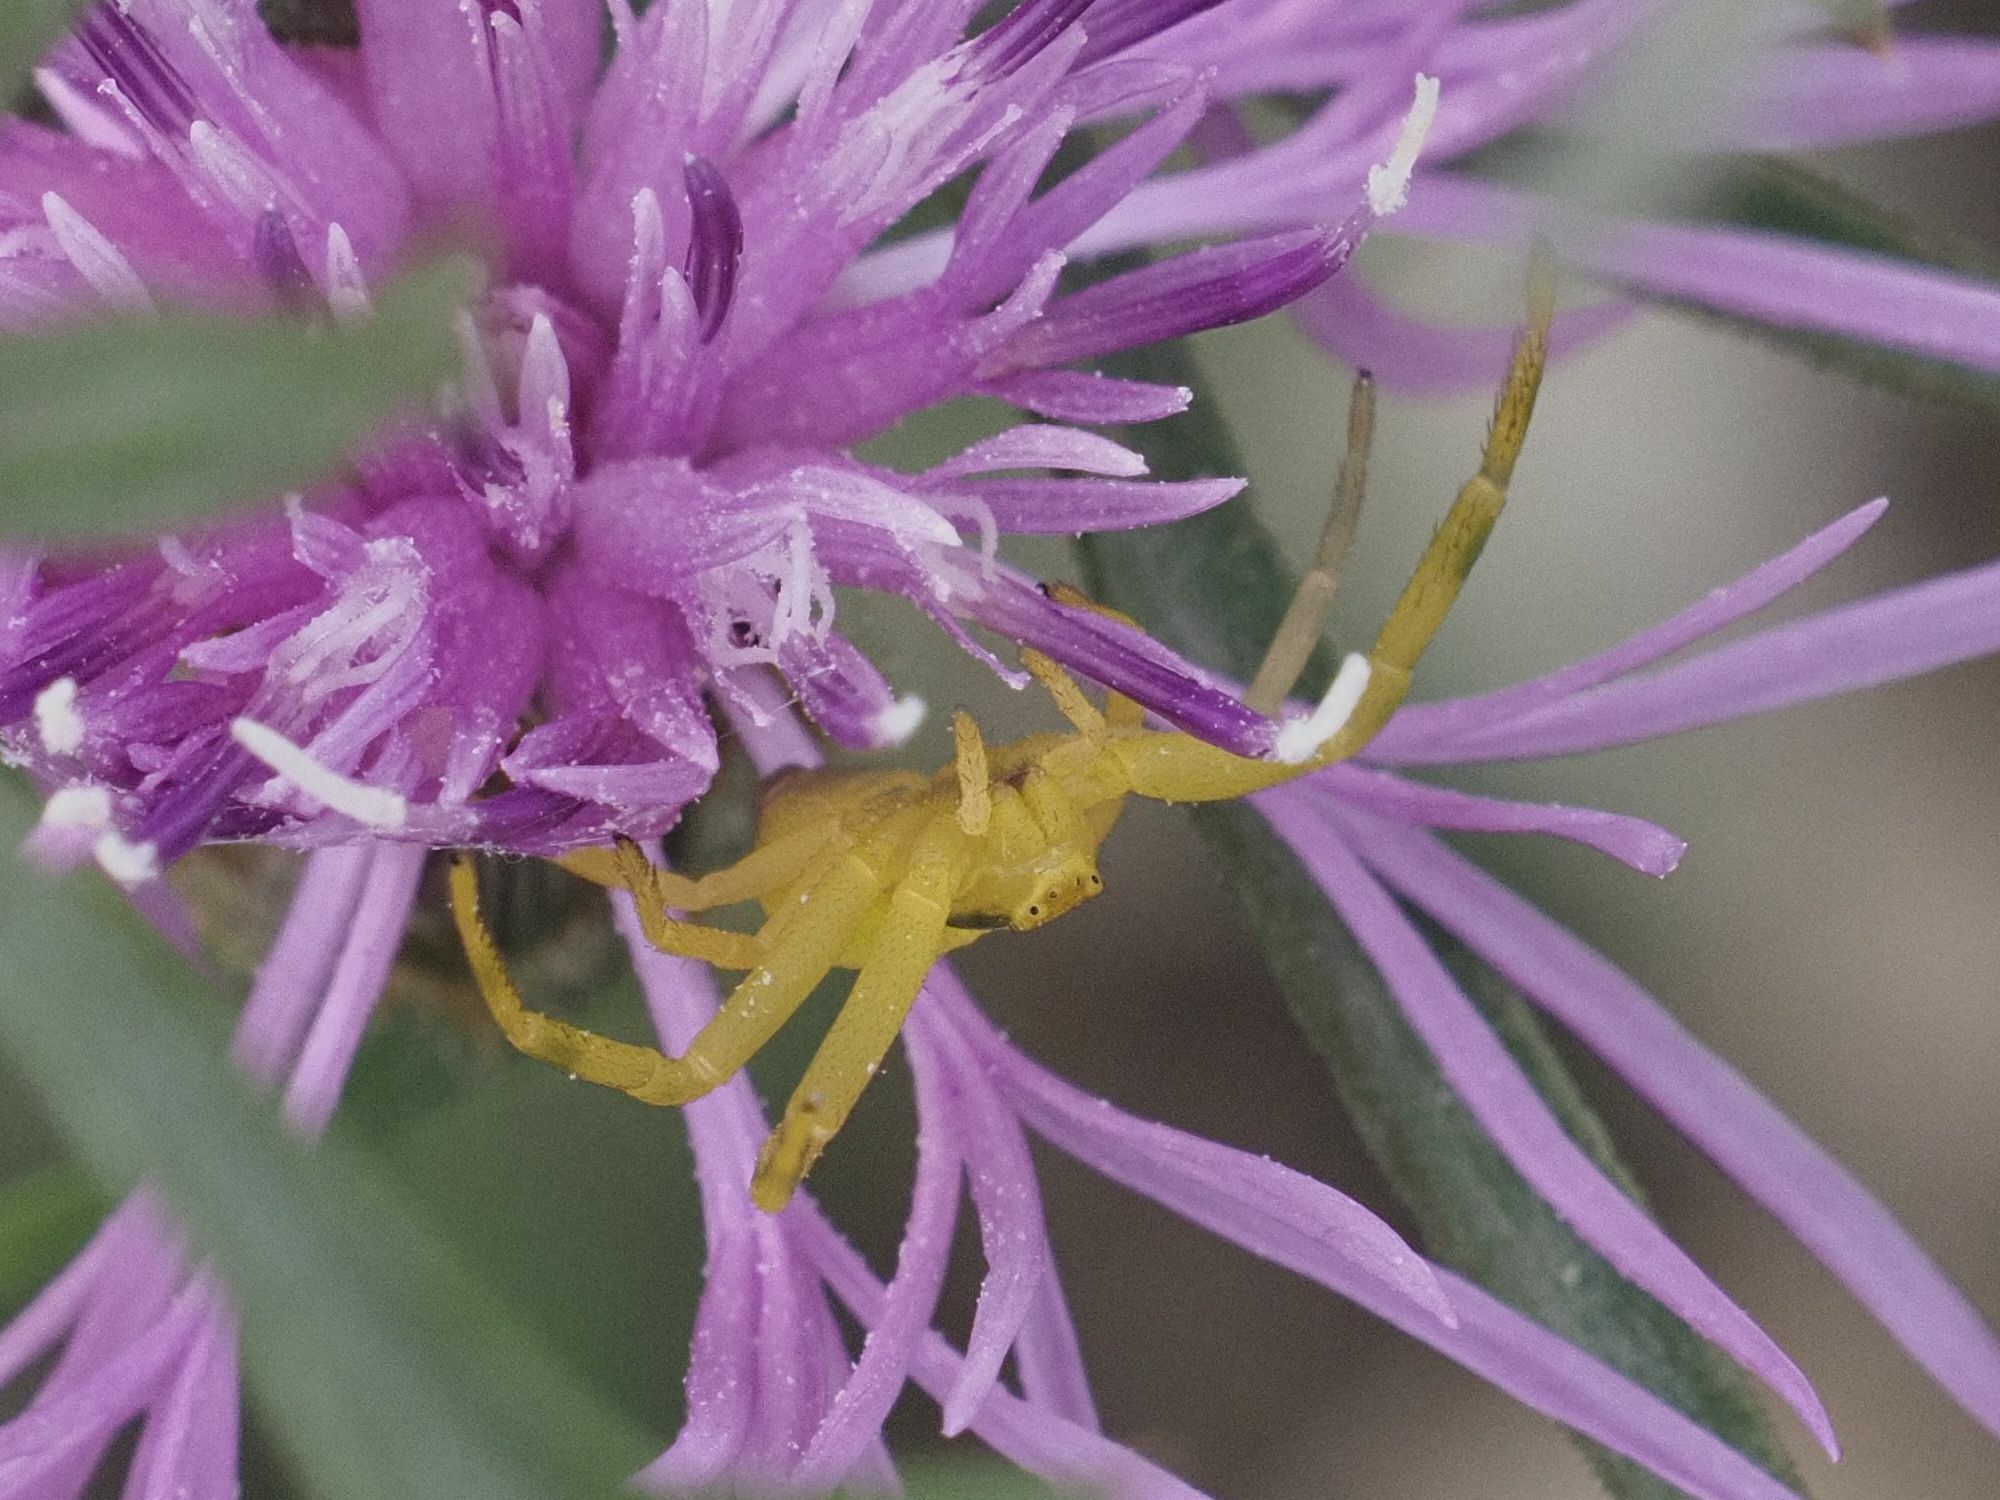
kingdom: Animalia
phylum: Arthropoda
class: Arachnida
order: Araneae
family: Thomisidae
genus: Misumena
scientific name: Misumena vatia
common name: Goldenrod crab spider
